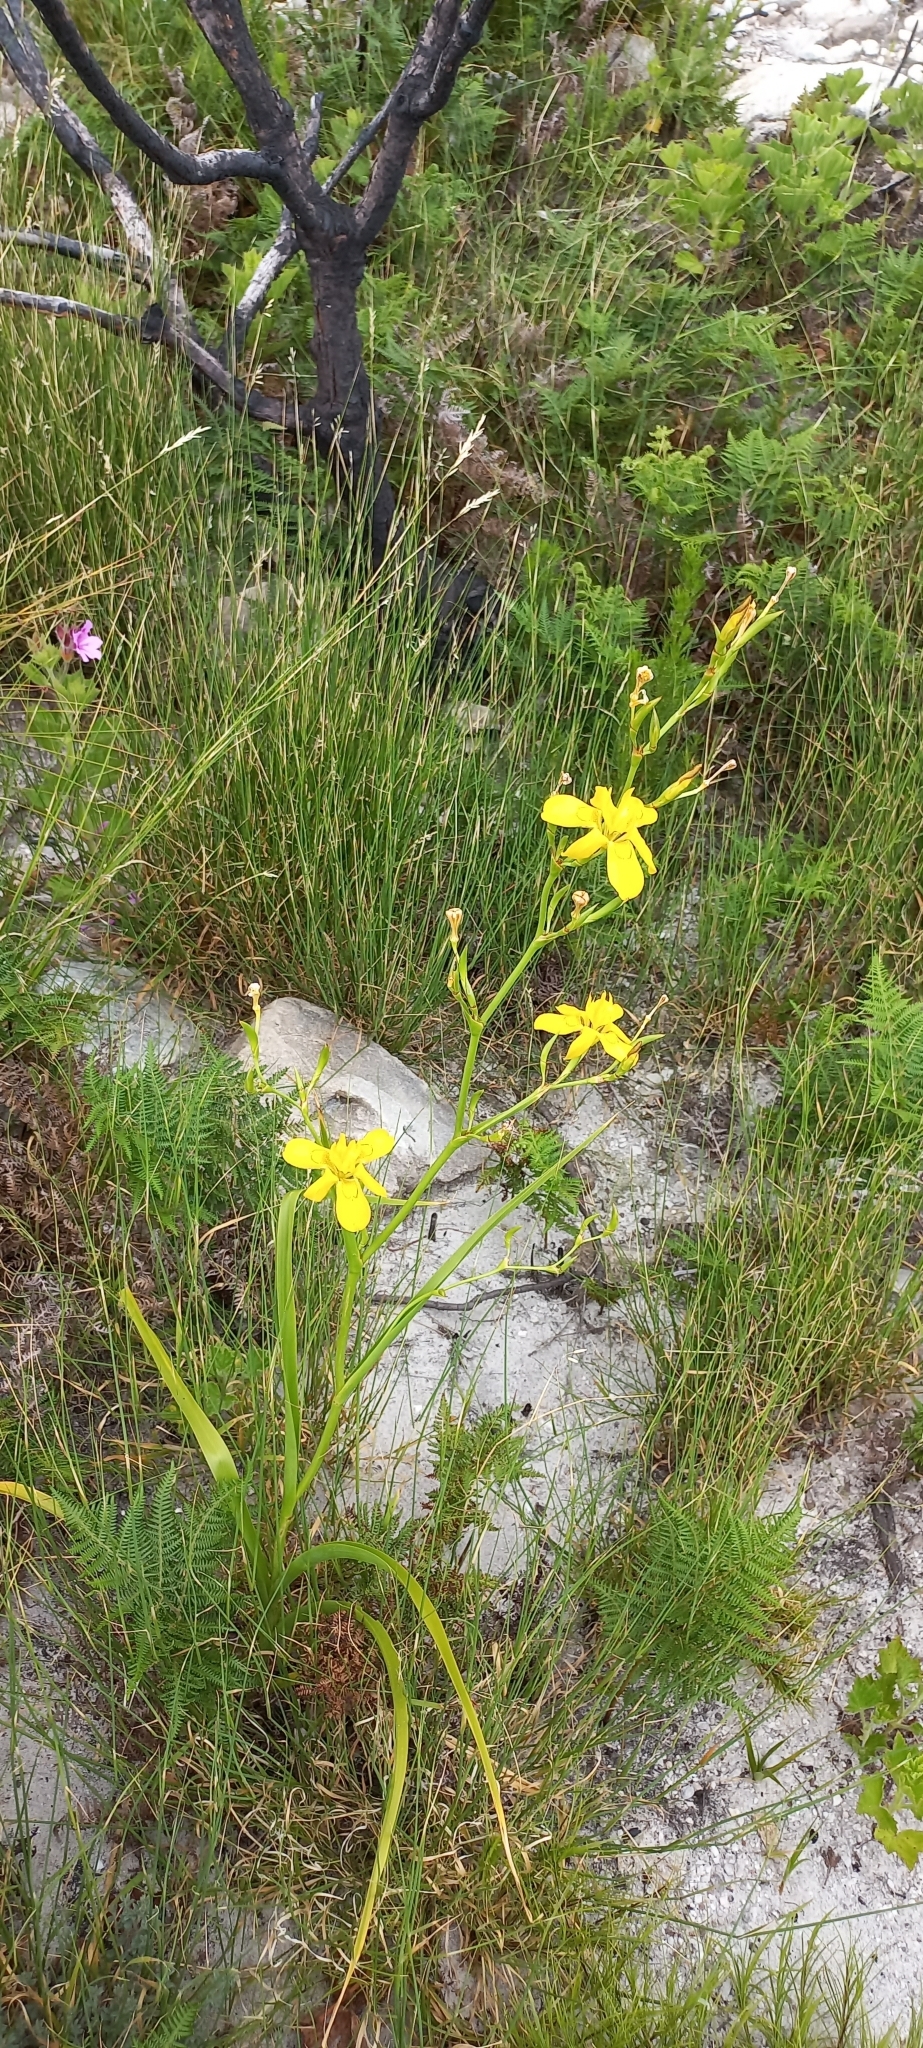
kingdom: Plantae
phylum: Tracheophyta
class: Liliopsida
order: Asparagales
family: Iridaceae
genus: Moraea
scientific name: Moraea ramosissima
